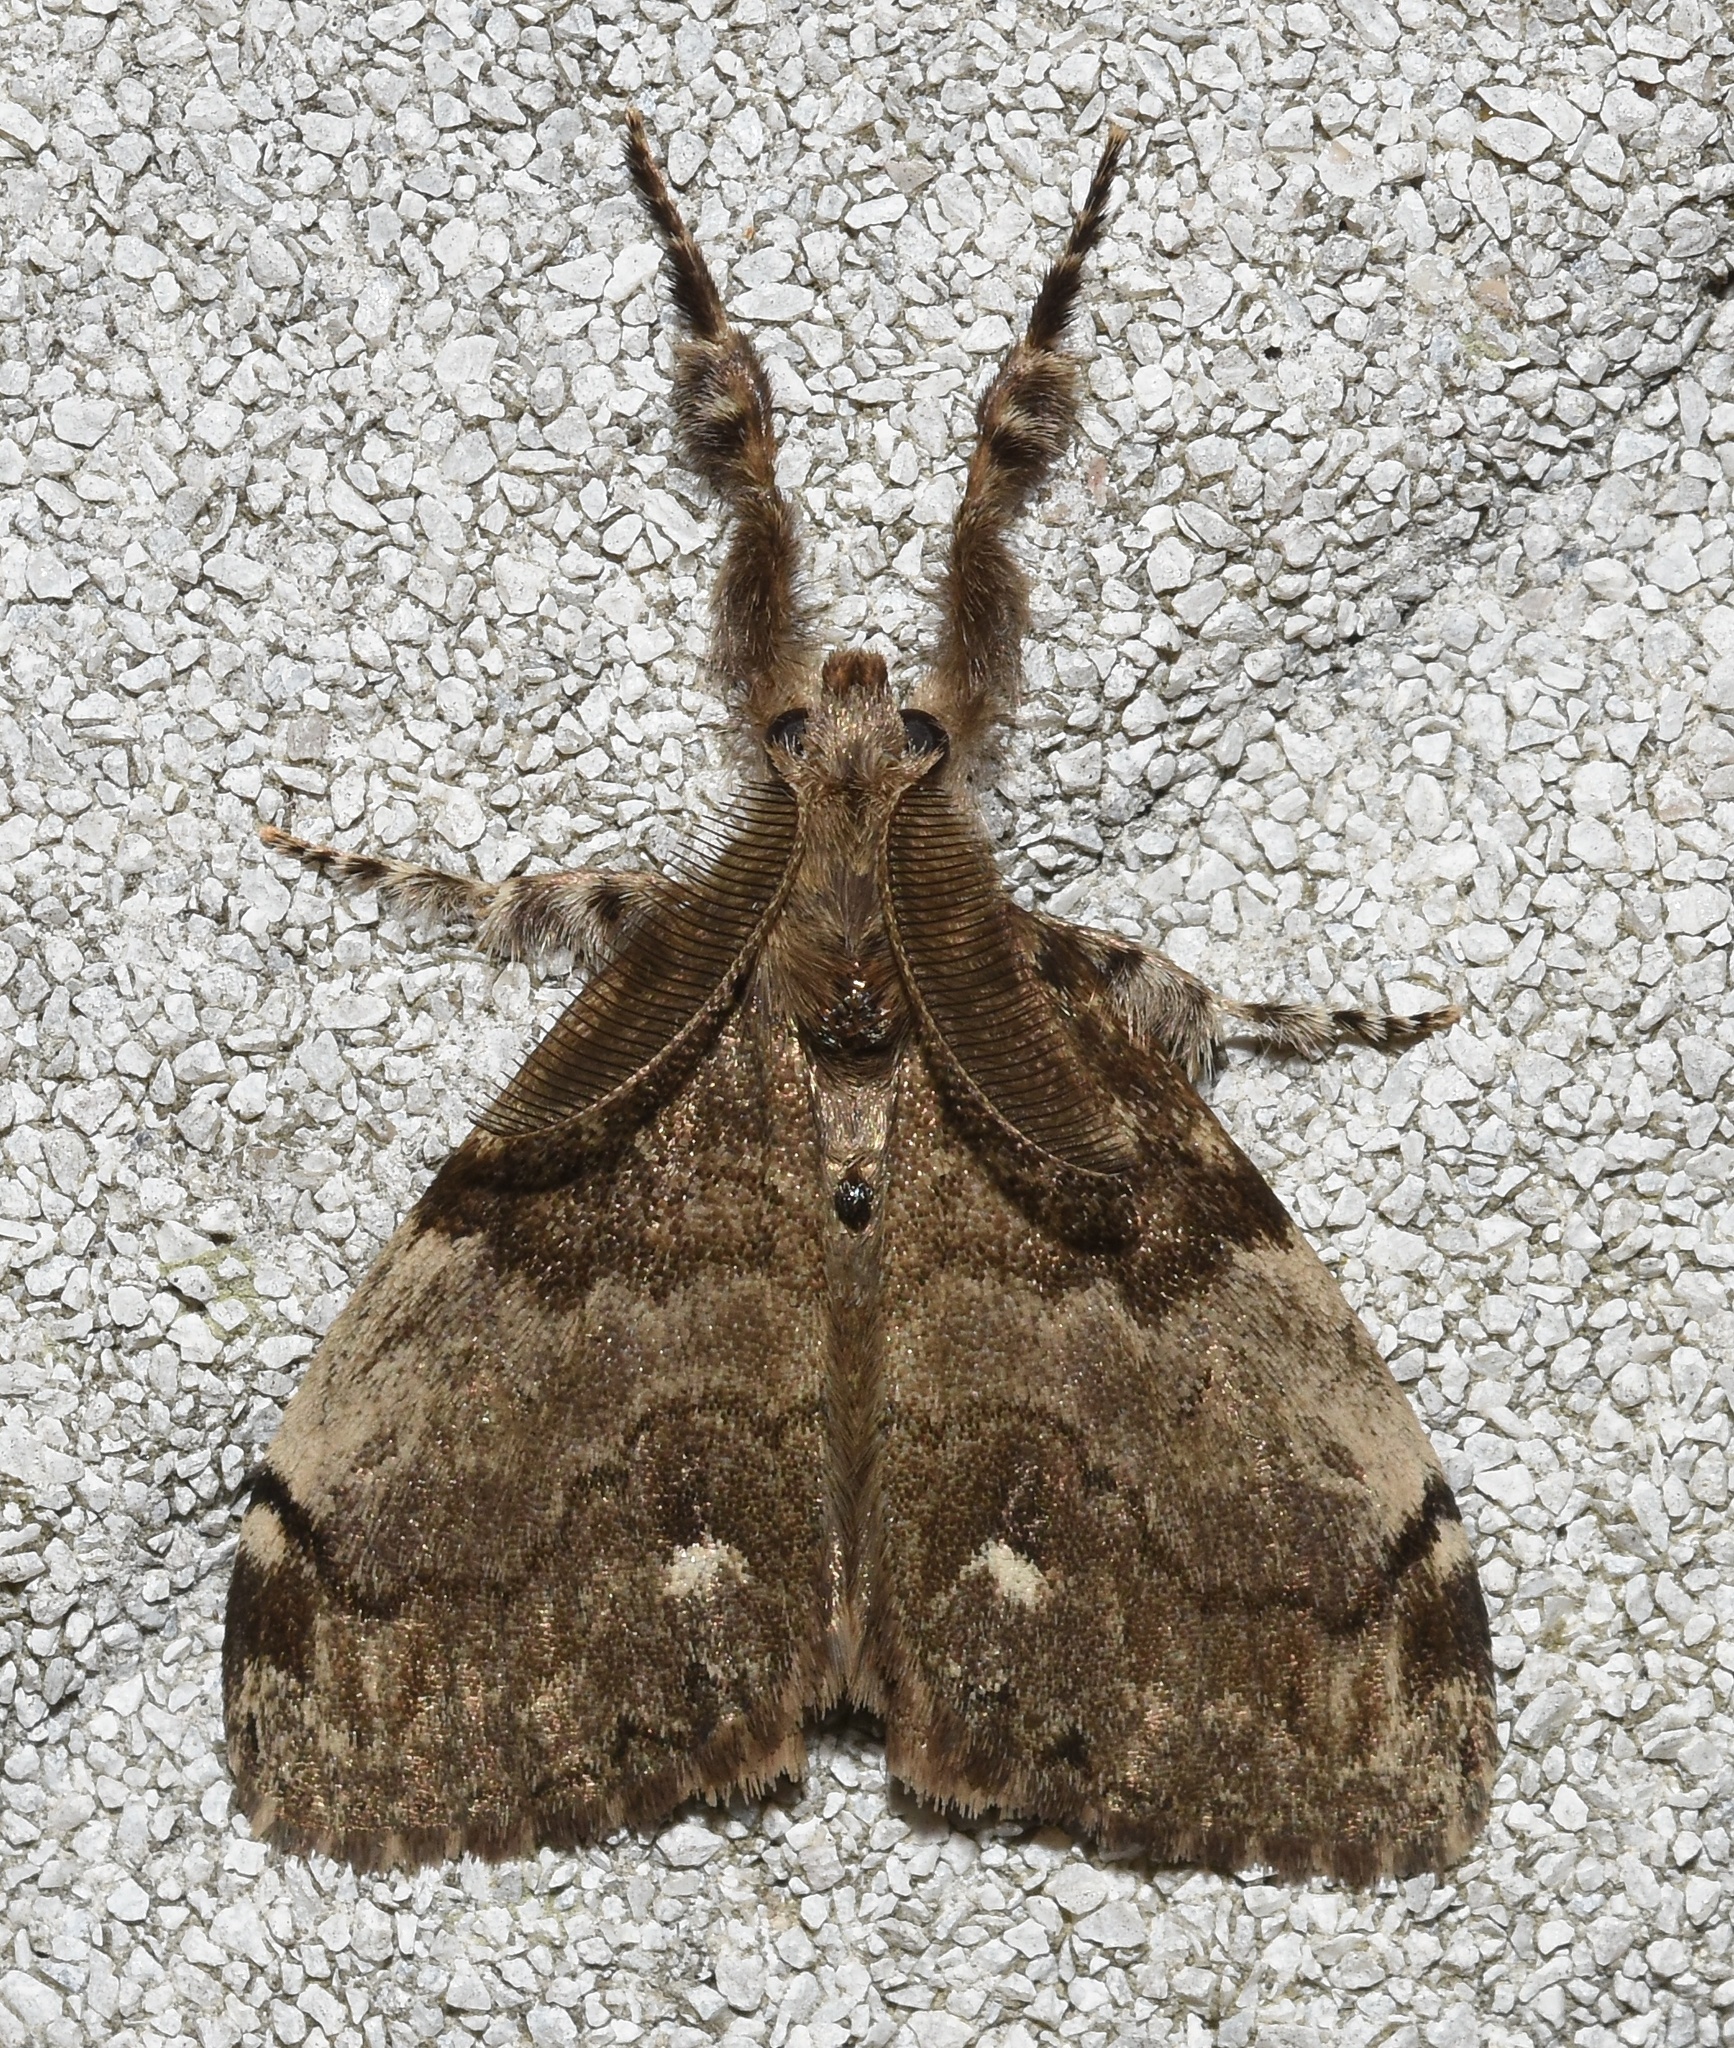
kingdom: Animalia
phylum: Arthropoda
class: Insecta
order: Lepidoptera
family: Erebidae
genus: Orgyia
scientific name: Orgyia leucostigma
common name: White-marked tussock moth
